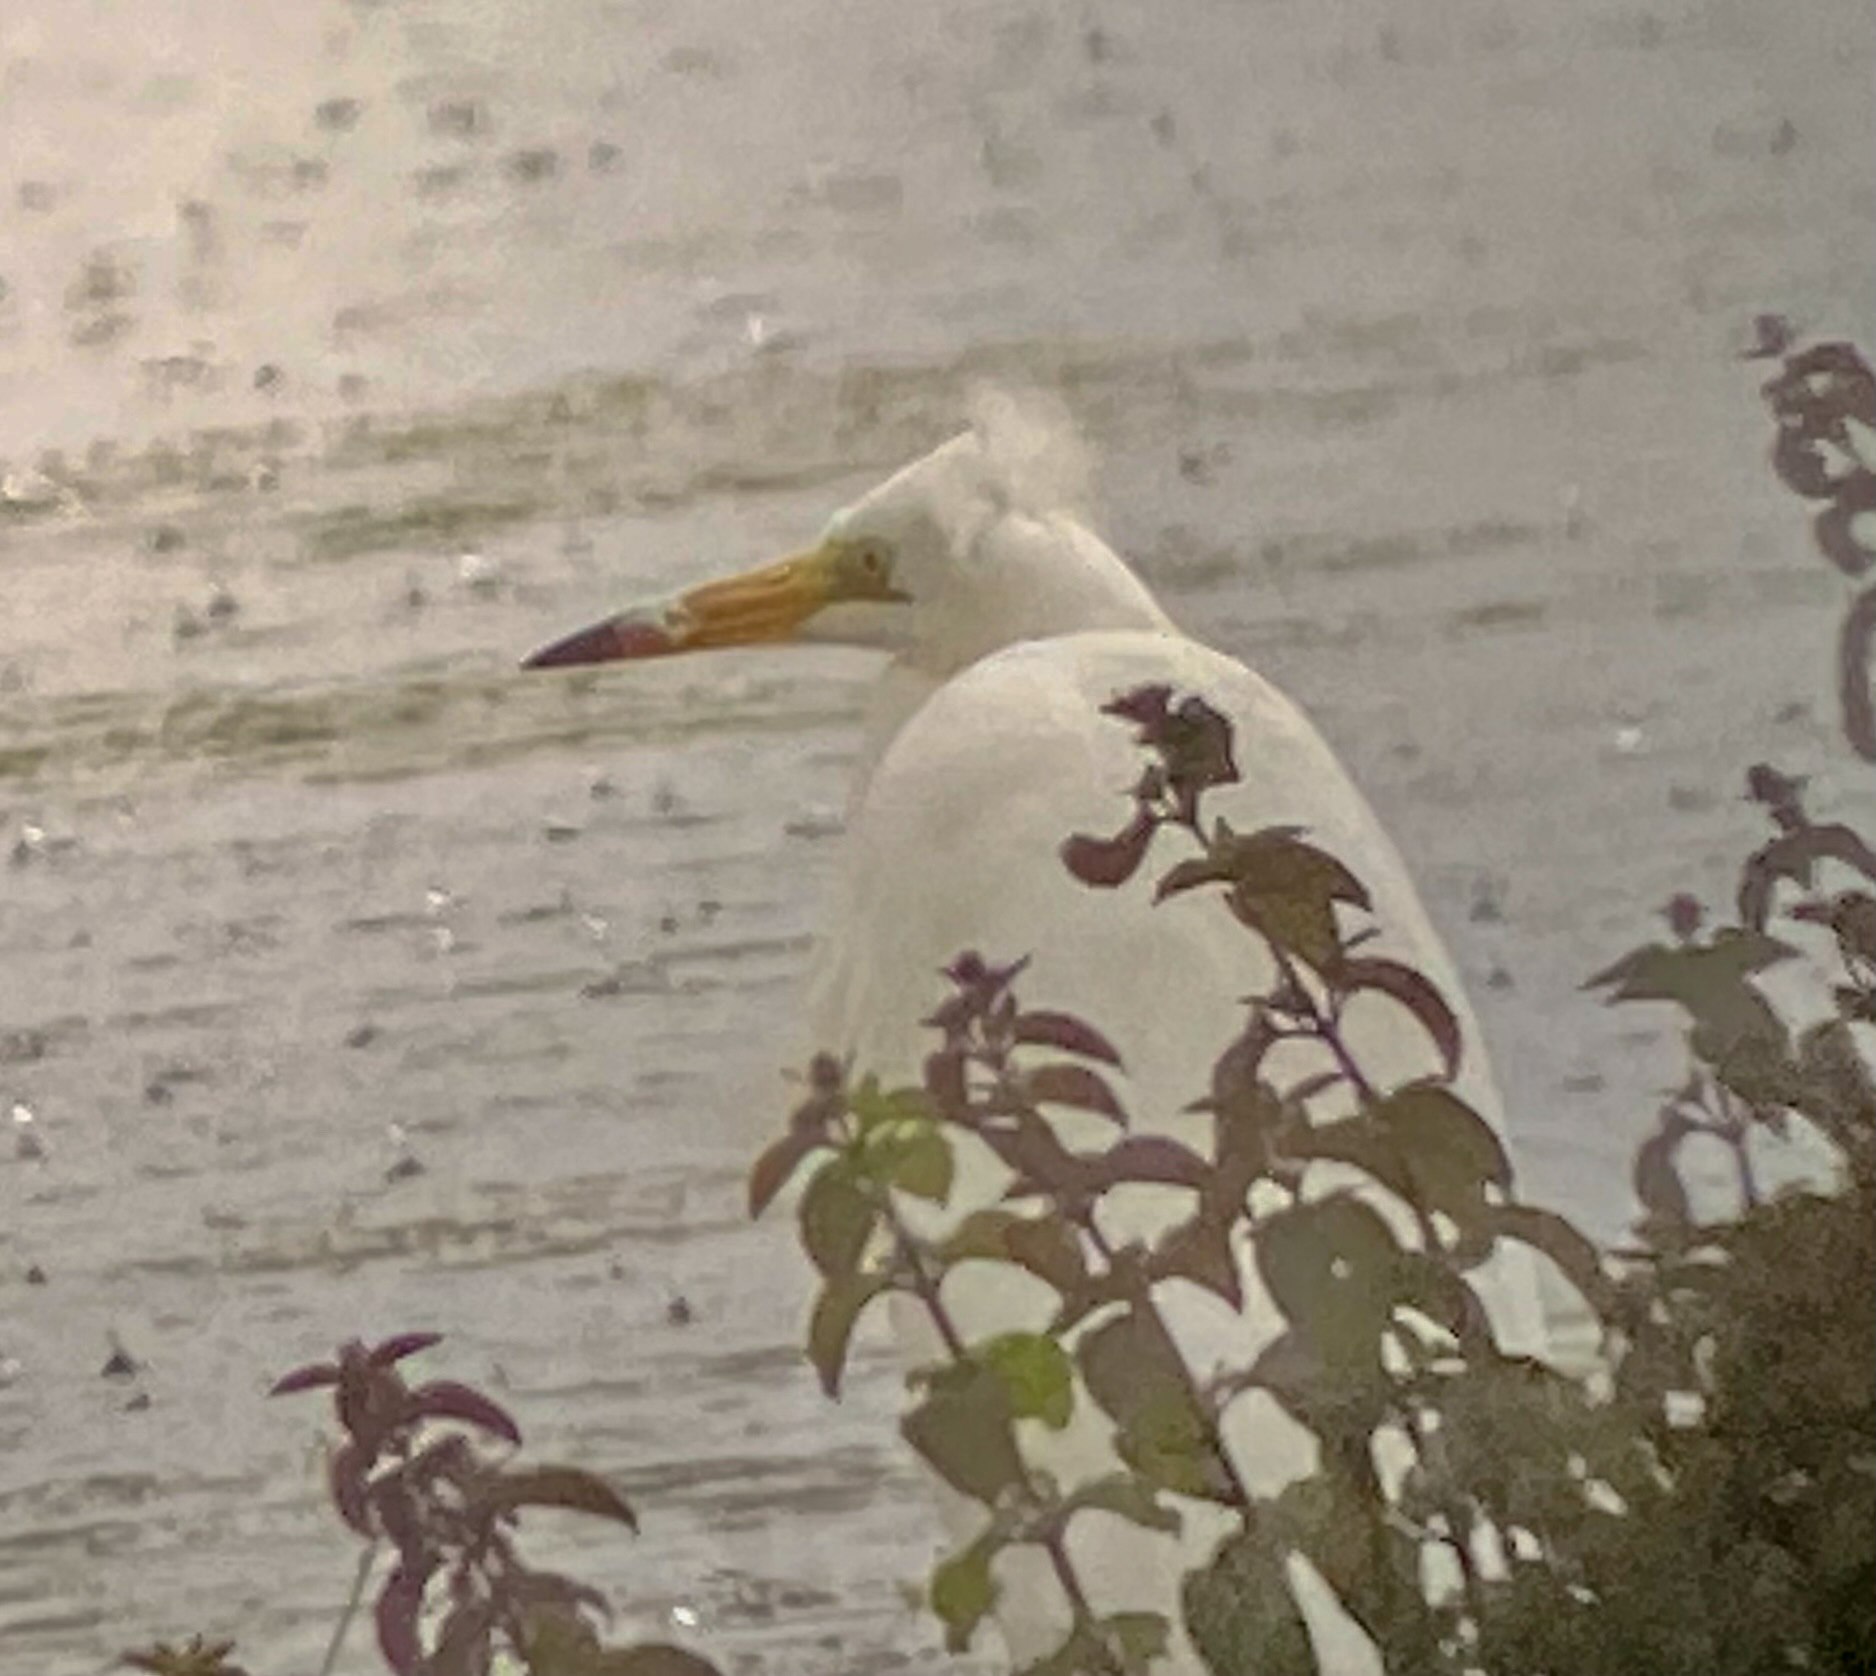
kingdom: Animalia
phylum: Chordata
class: Aves
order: Pelecaniformes
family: Ardeidae
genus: Ardea
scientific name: Ardea alba
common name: Great egret
